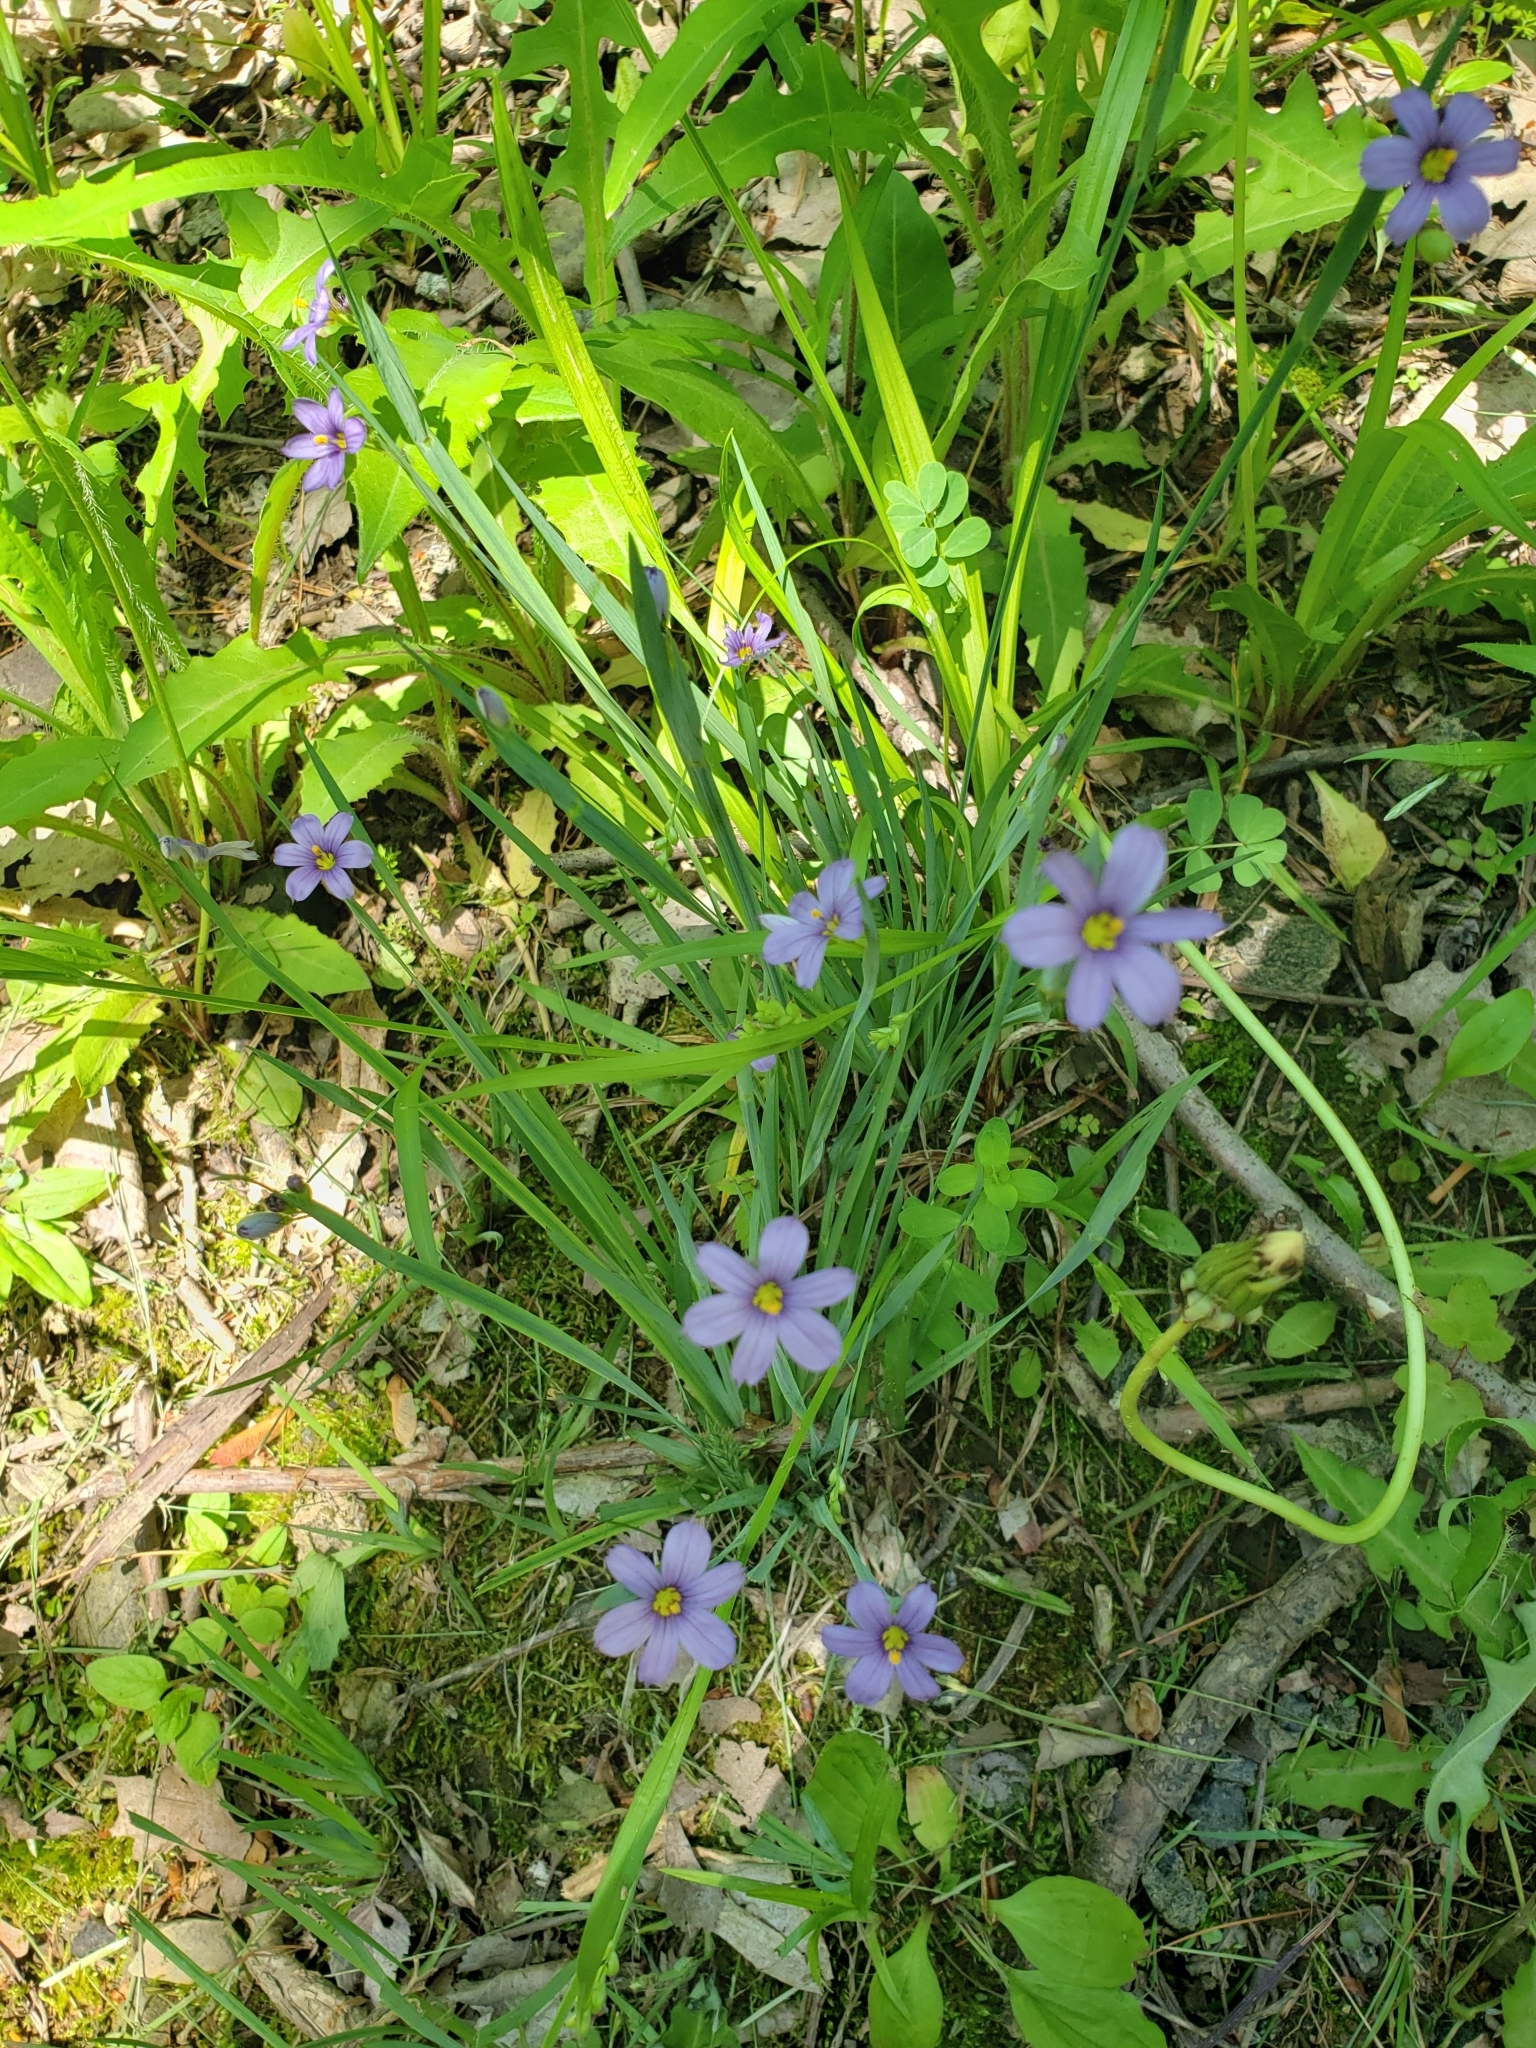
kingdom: Plantae
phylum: Tracheophyta
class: Liliopsida
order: Asparagales
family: Iridaceae
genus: Sisyrinchium
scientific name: Sisyrinchium montanum
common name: American blue-eyed-grass
